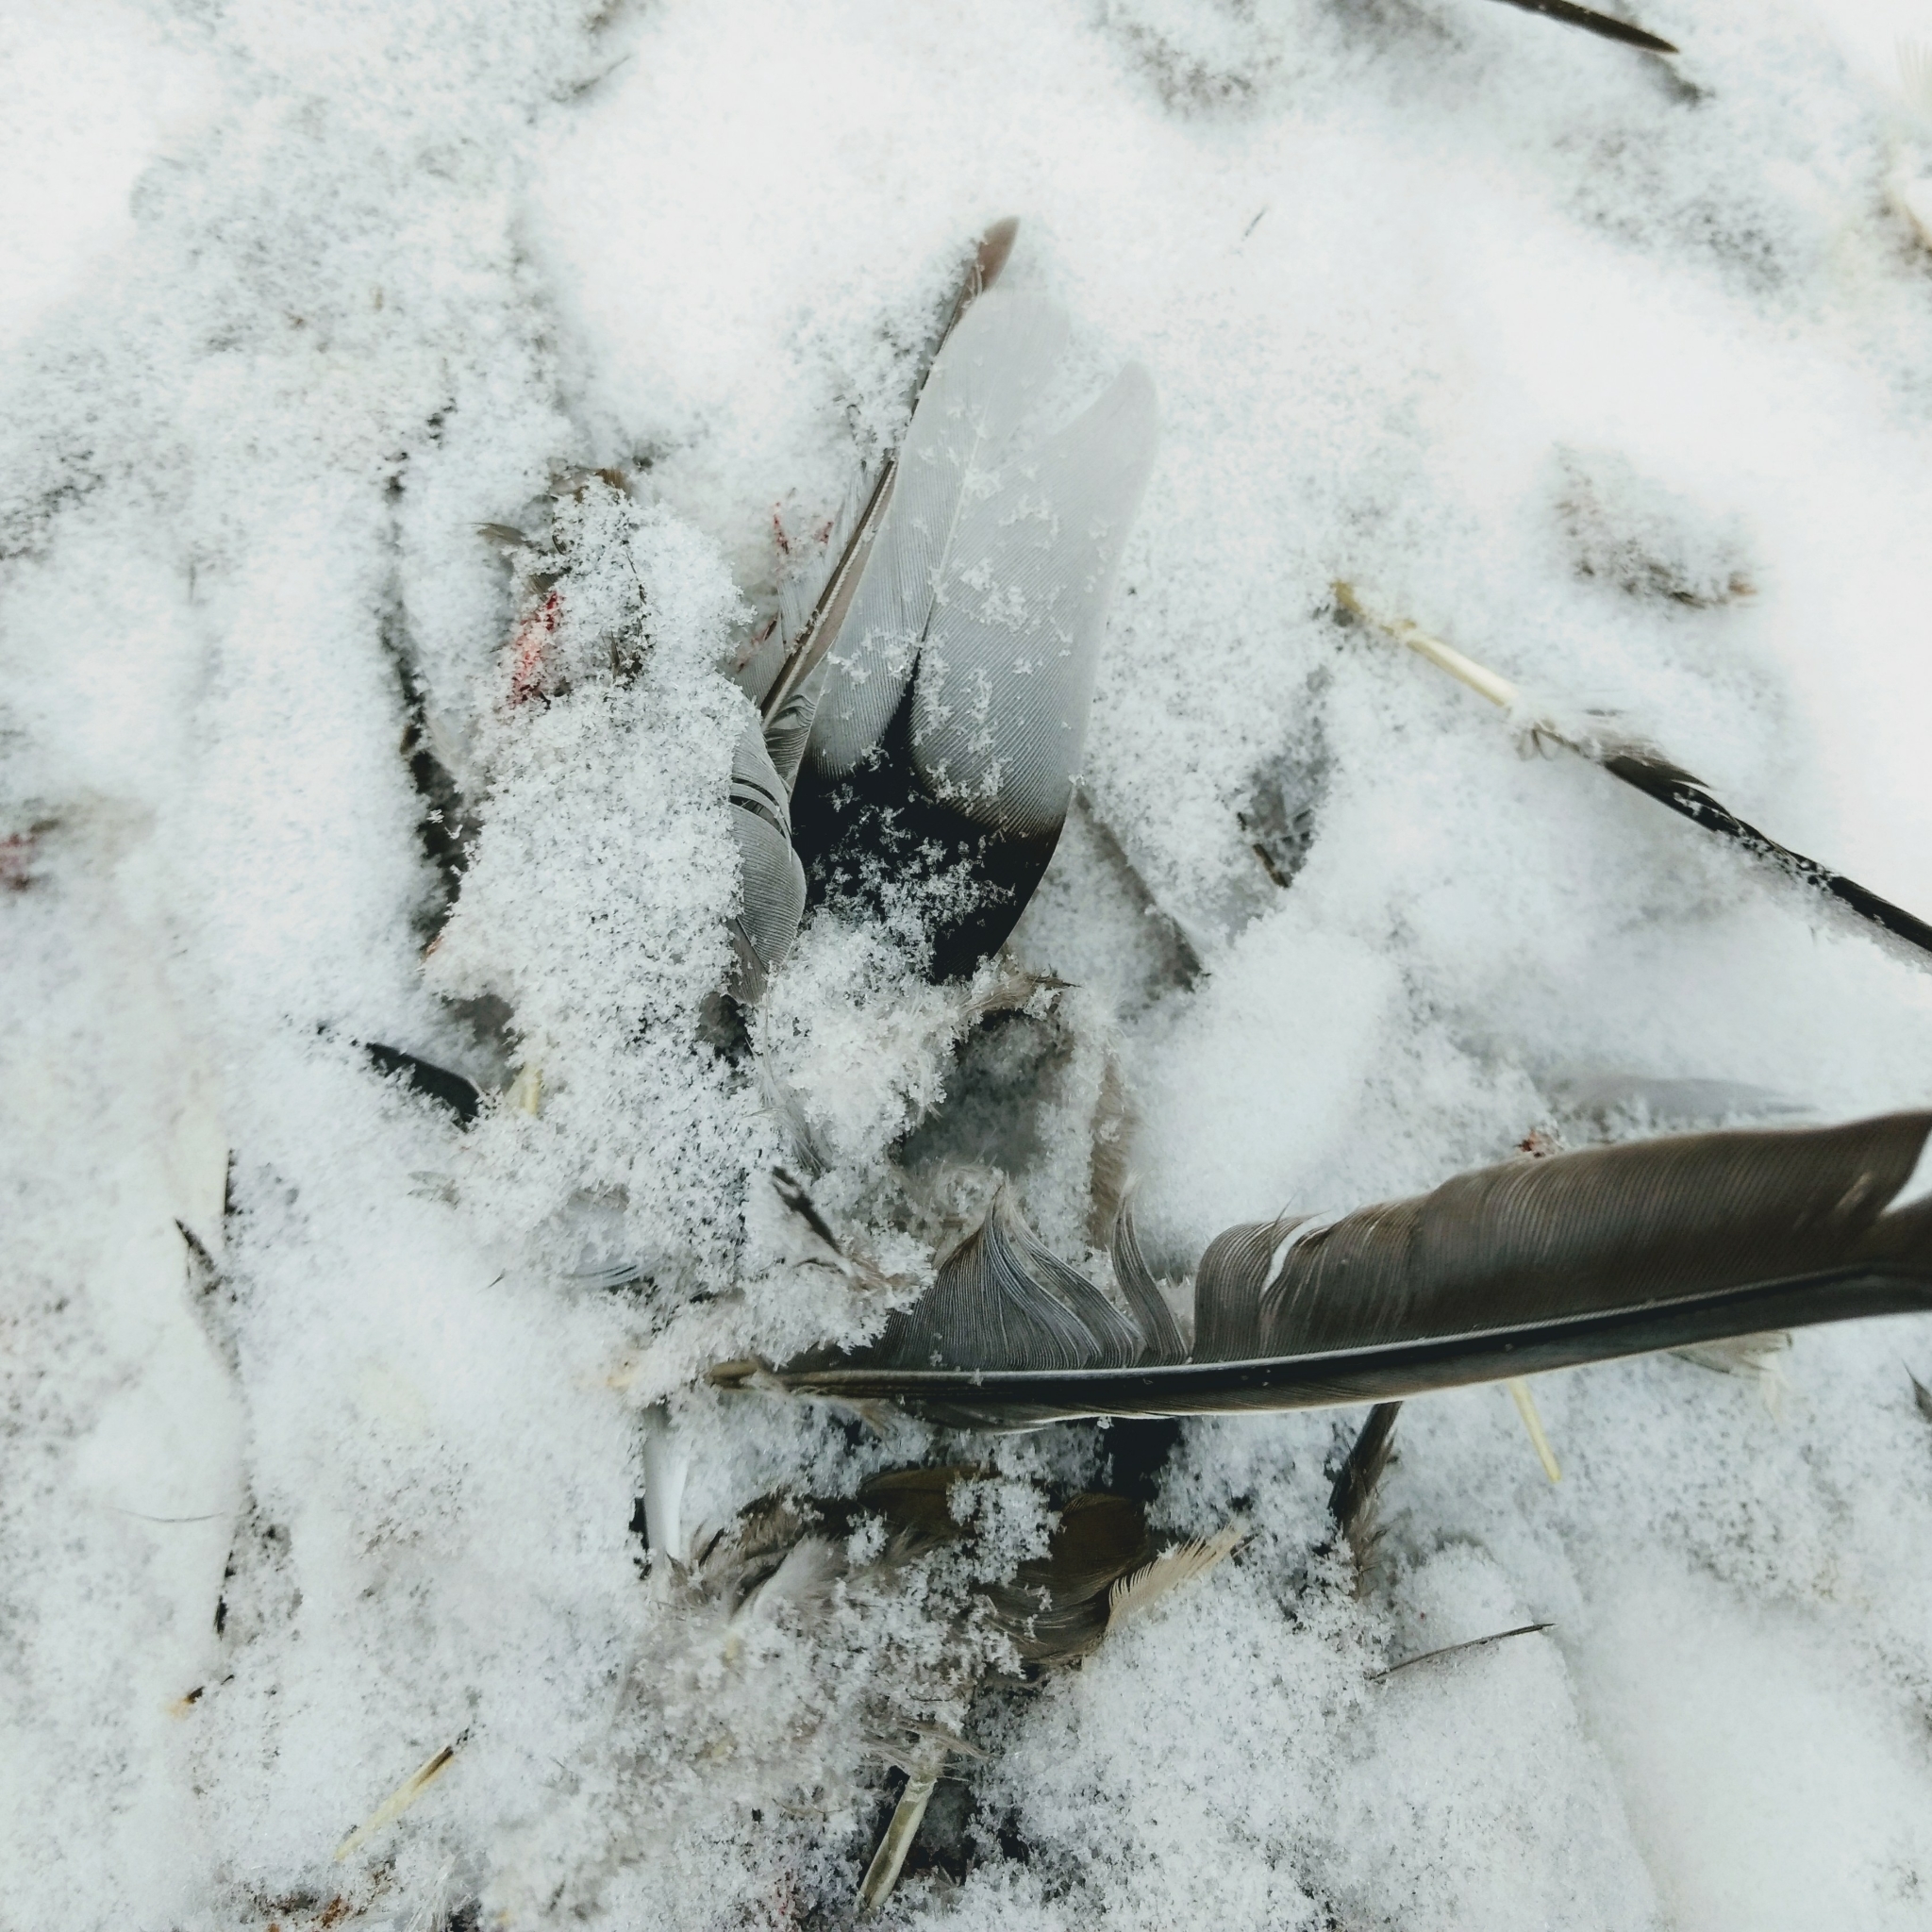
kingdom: Animalia
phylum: Chordata
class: Aves
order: Columbiformes
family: Columbidae
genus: Zenaida
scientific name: Zenaida macroura
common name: Mourning dove
